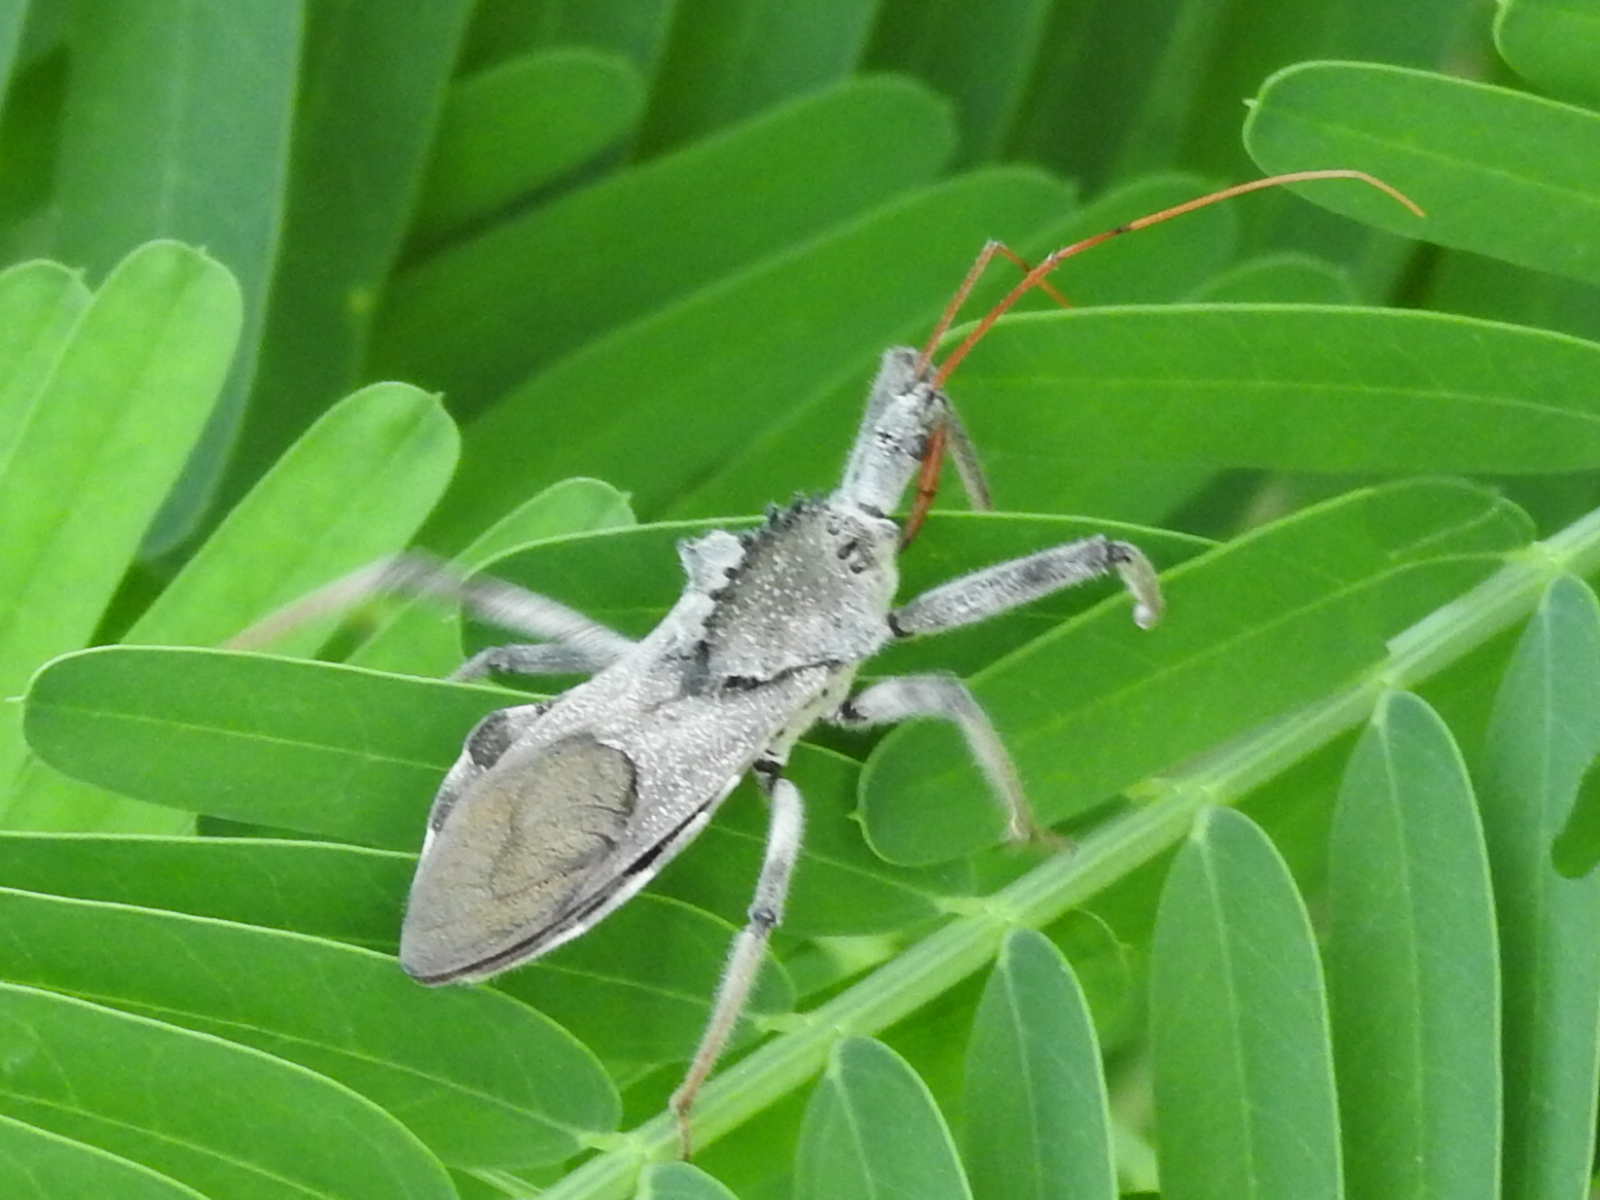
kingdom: Animalia
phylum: Arthropoda
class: Insecta
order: Hemiptera
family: Reduviidae
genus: Arilus
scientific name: Arilus cristatus
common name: North american wheel bug
